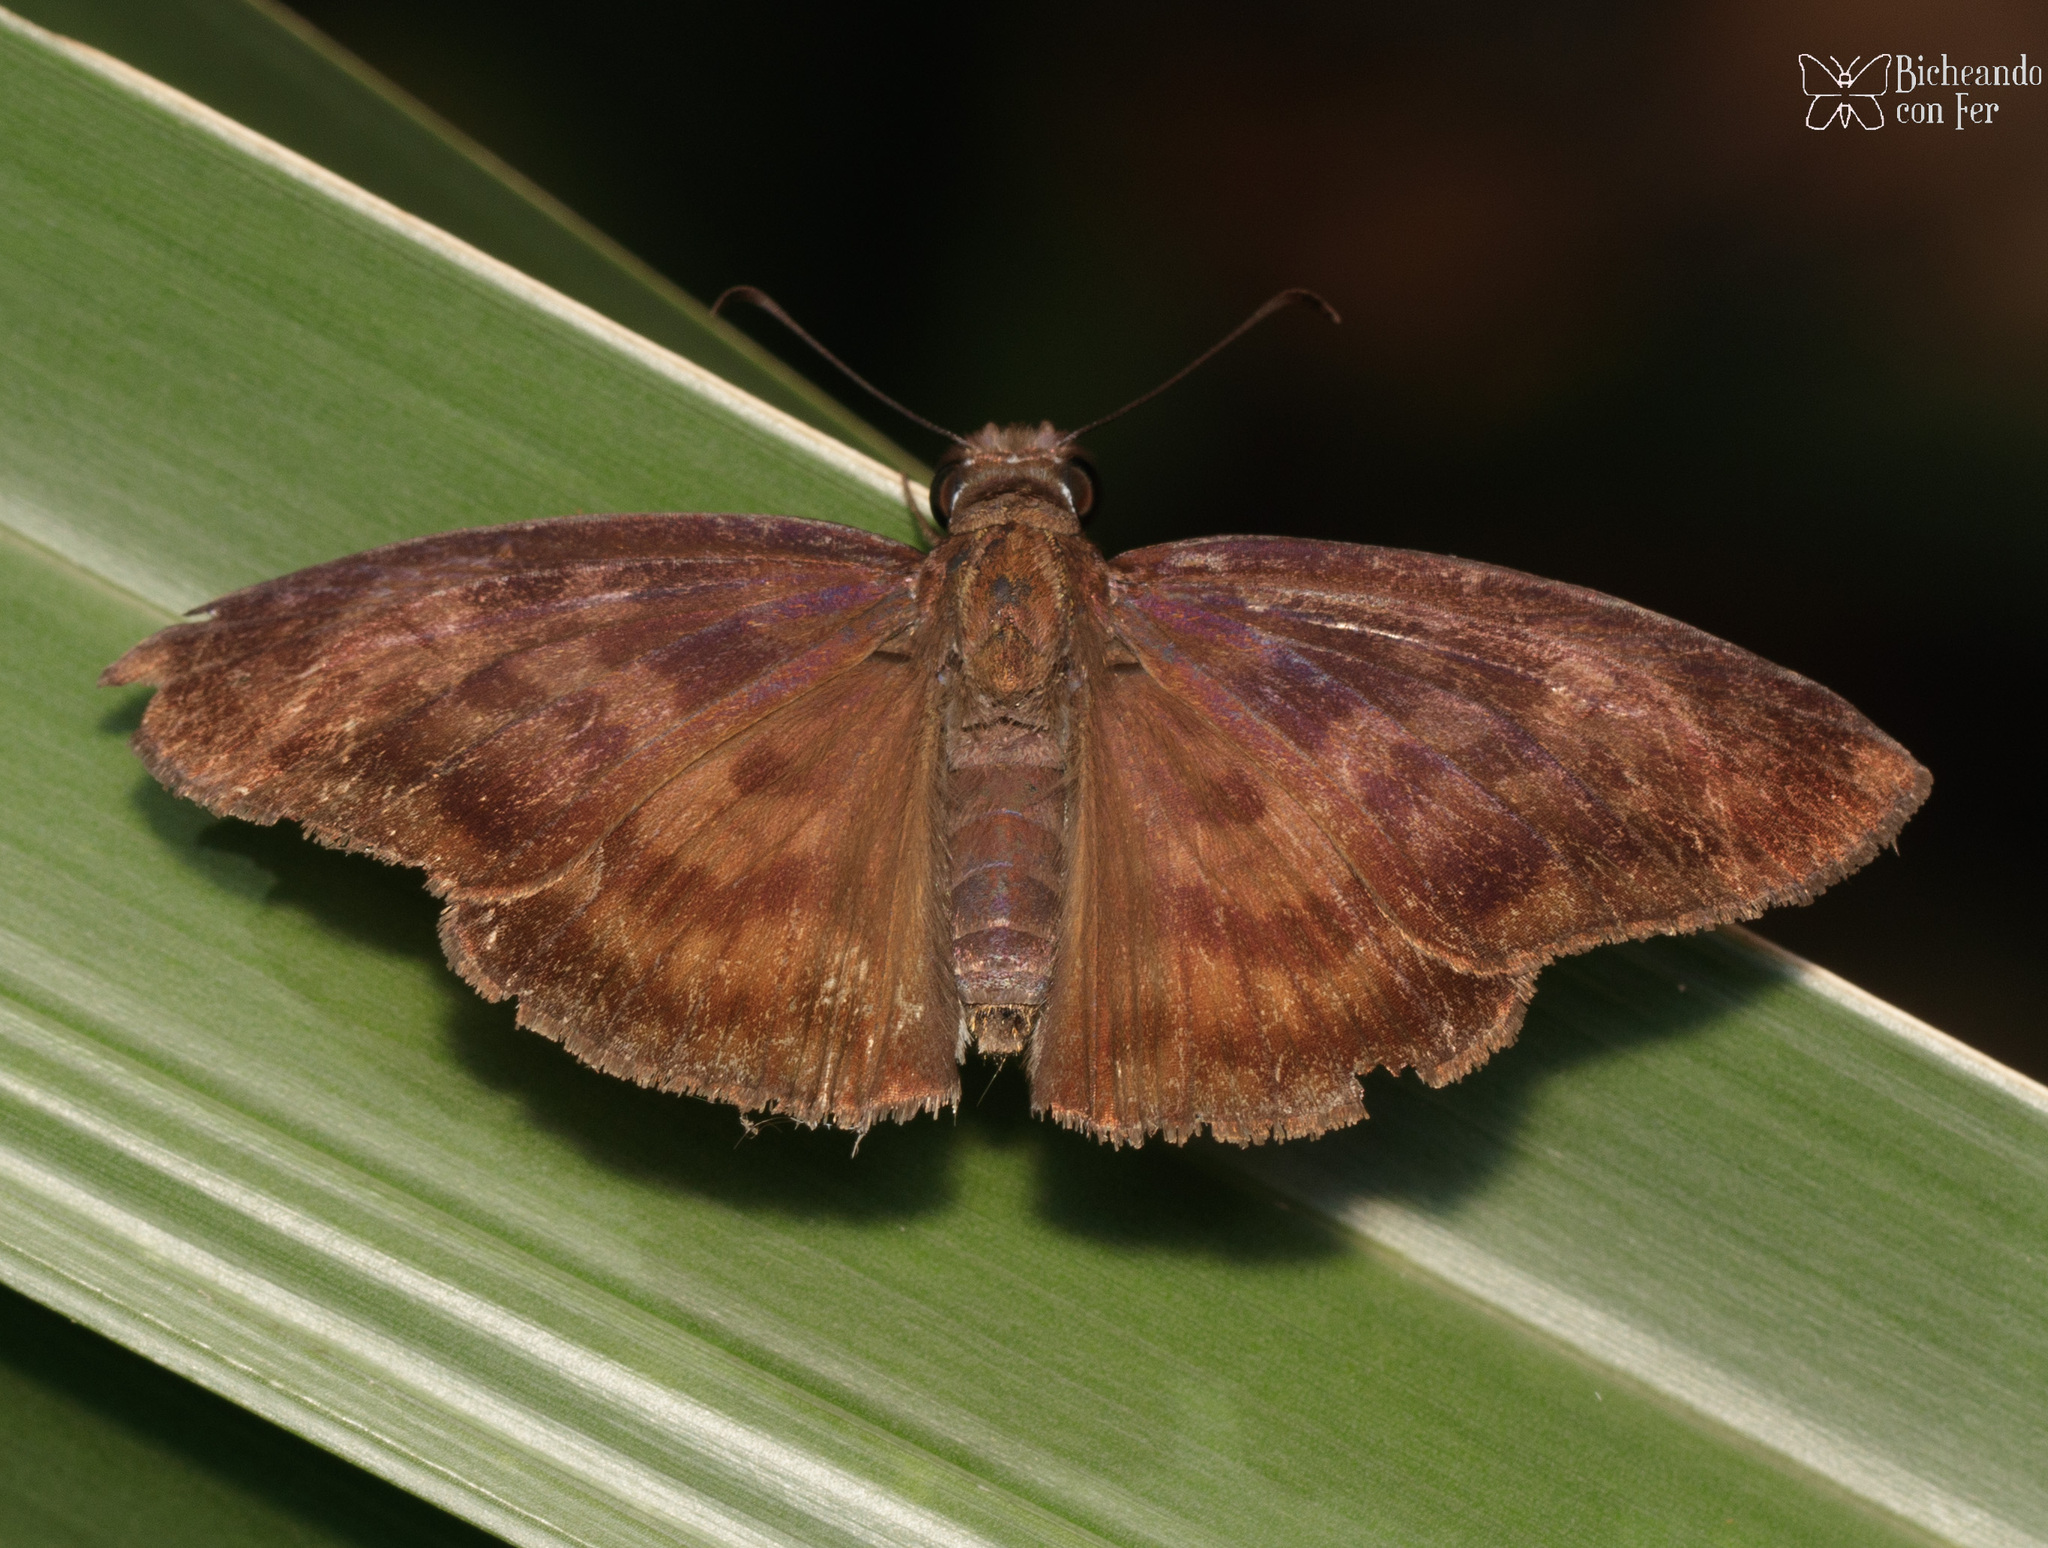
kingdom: Animalia
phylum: Arthropoda
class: Insecta
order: Lepidoptera
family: Hesperiidae
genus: Anastrus
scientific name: Anastrus Echelatus sempiternus
